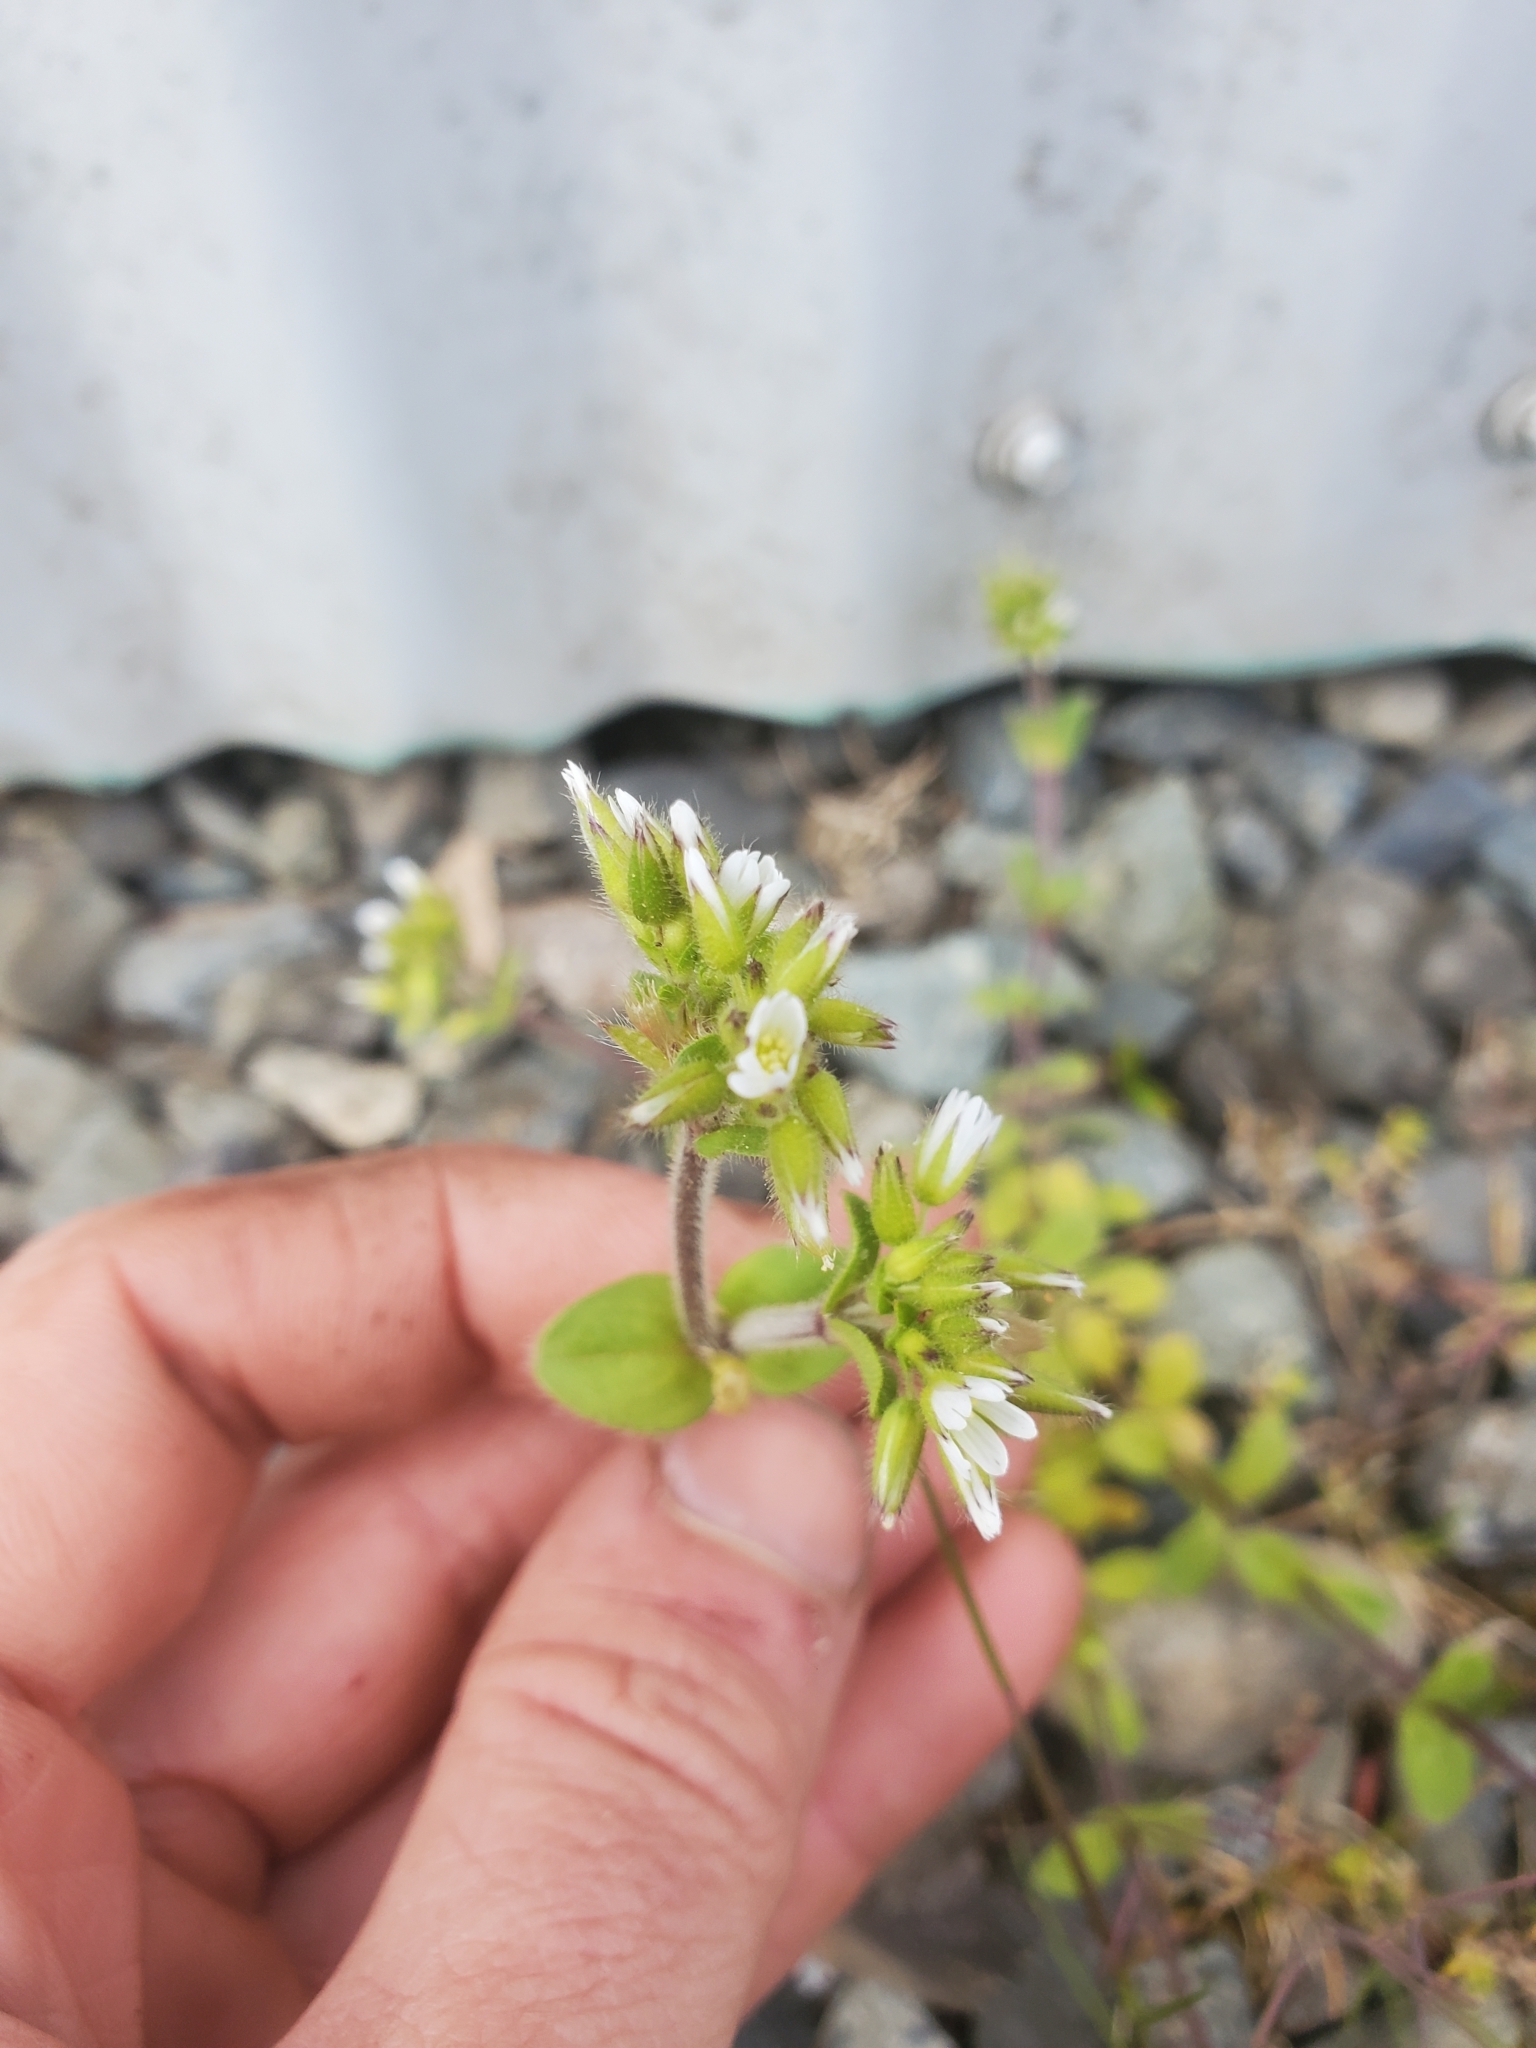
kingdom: Plantae
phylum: Tracheophyta
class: Magnoliopsida
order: Caryophyllales
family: Caryophyllaceae
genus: Cerastium
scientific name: Cerastium glomeratum
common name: Sticky chickweed
